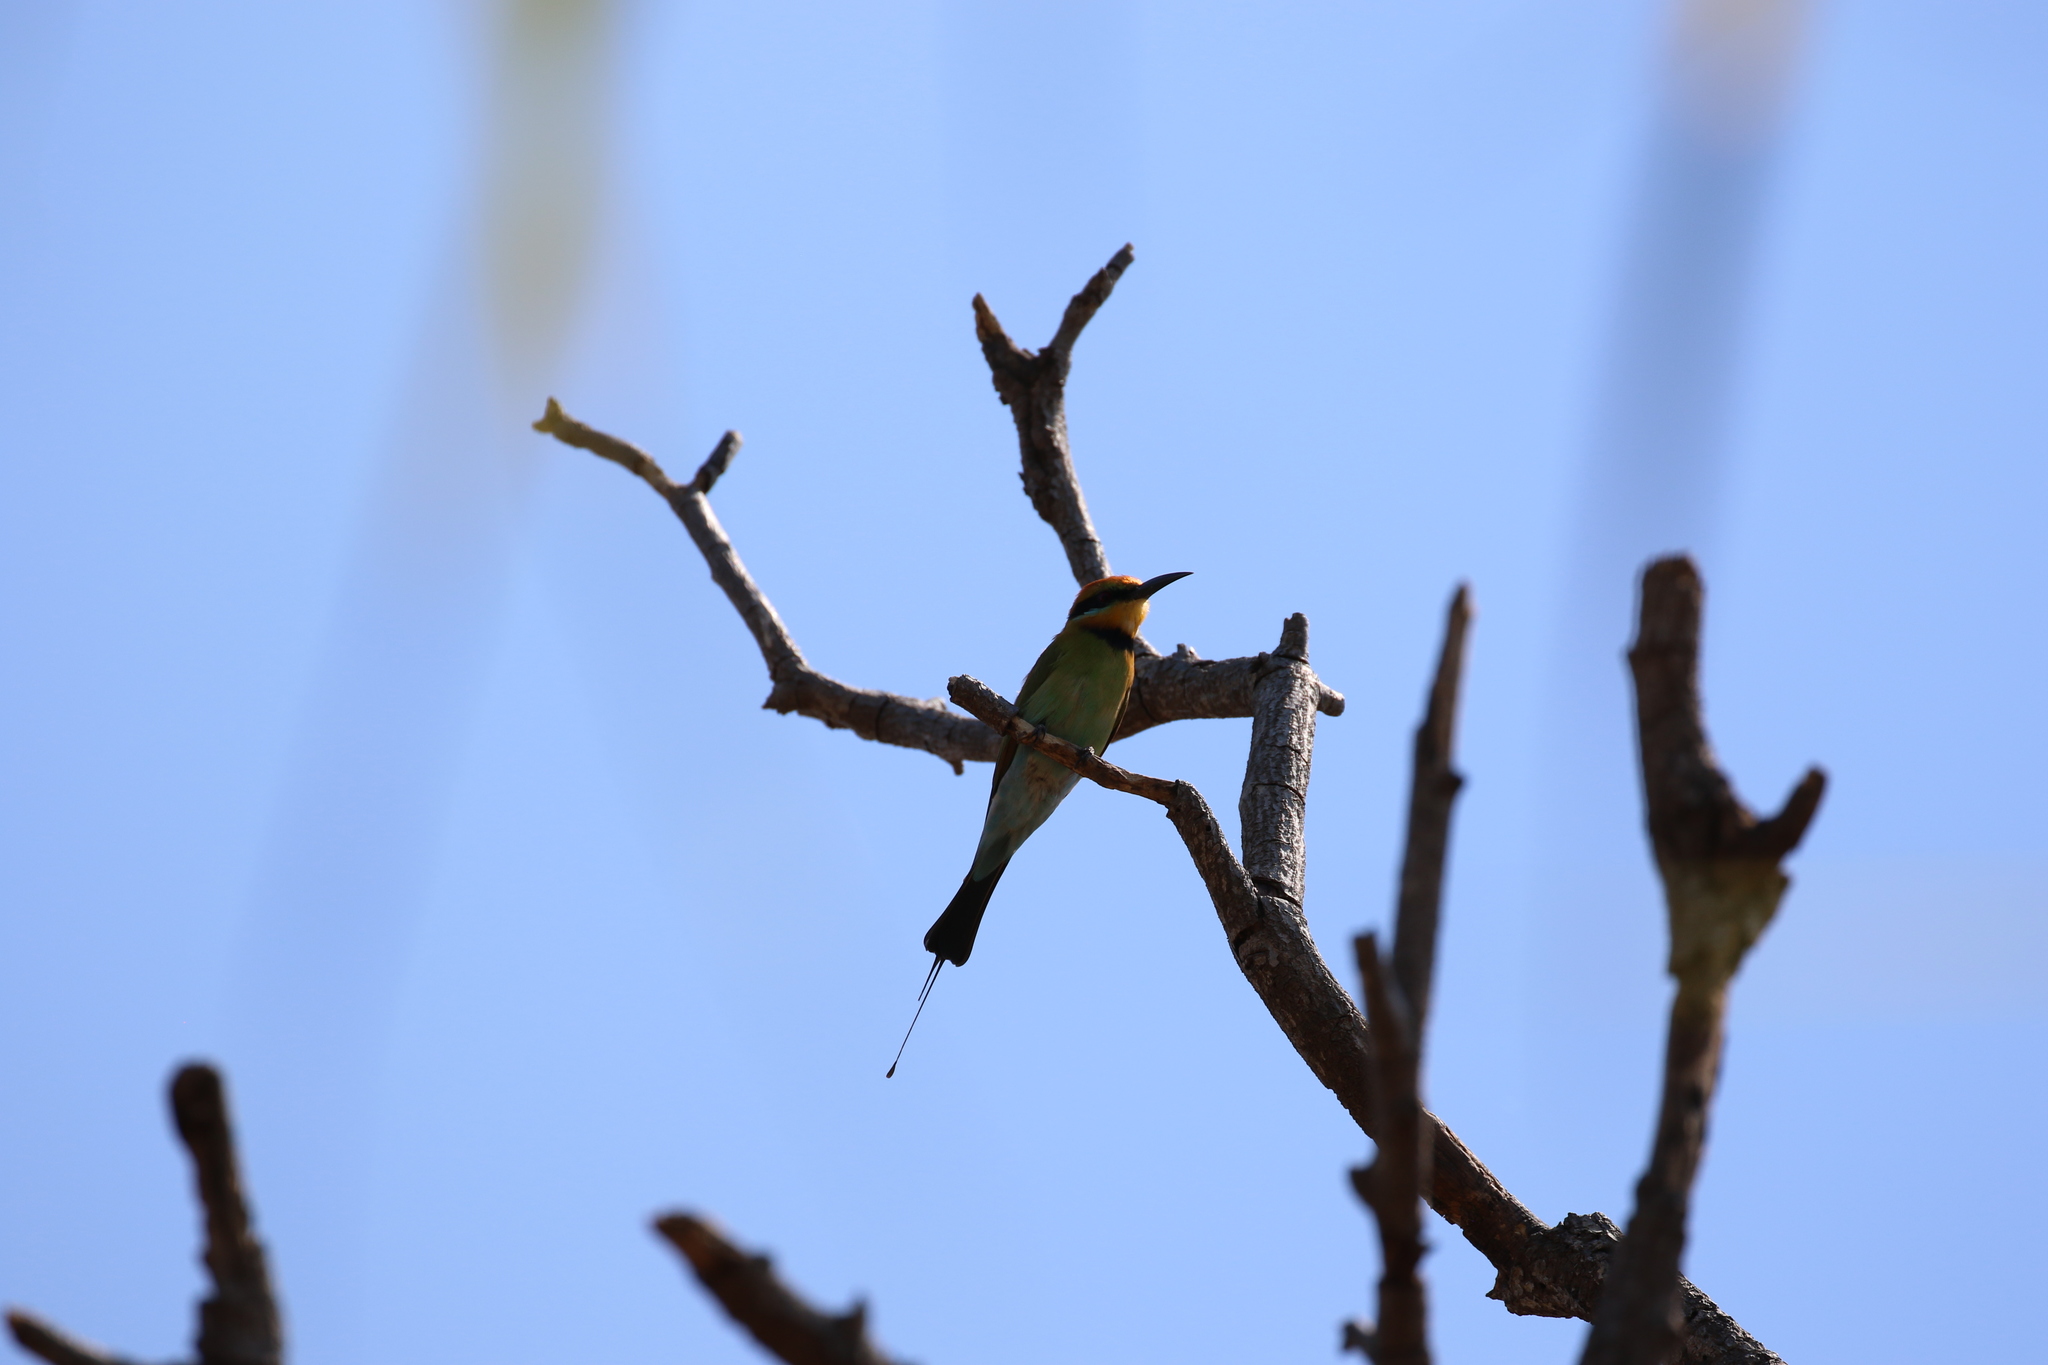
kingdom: Animalia
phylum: Chordata
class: Aves
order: Coraciiformes
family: Meropidae
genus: Merops
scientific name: Merops ornatus
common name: Rainbow bee-eater
